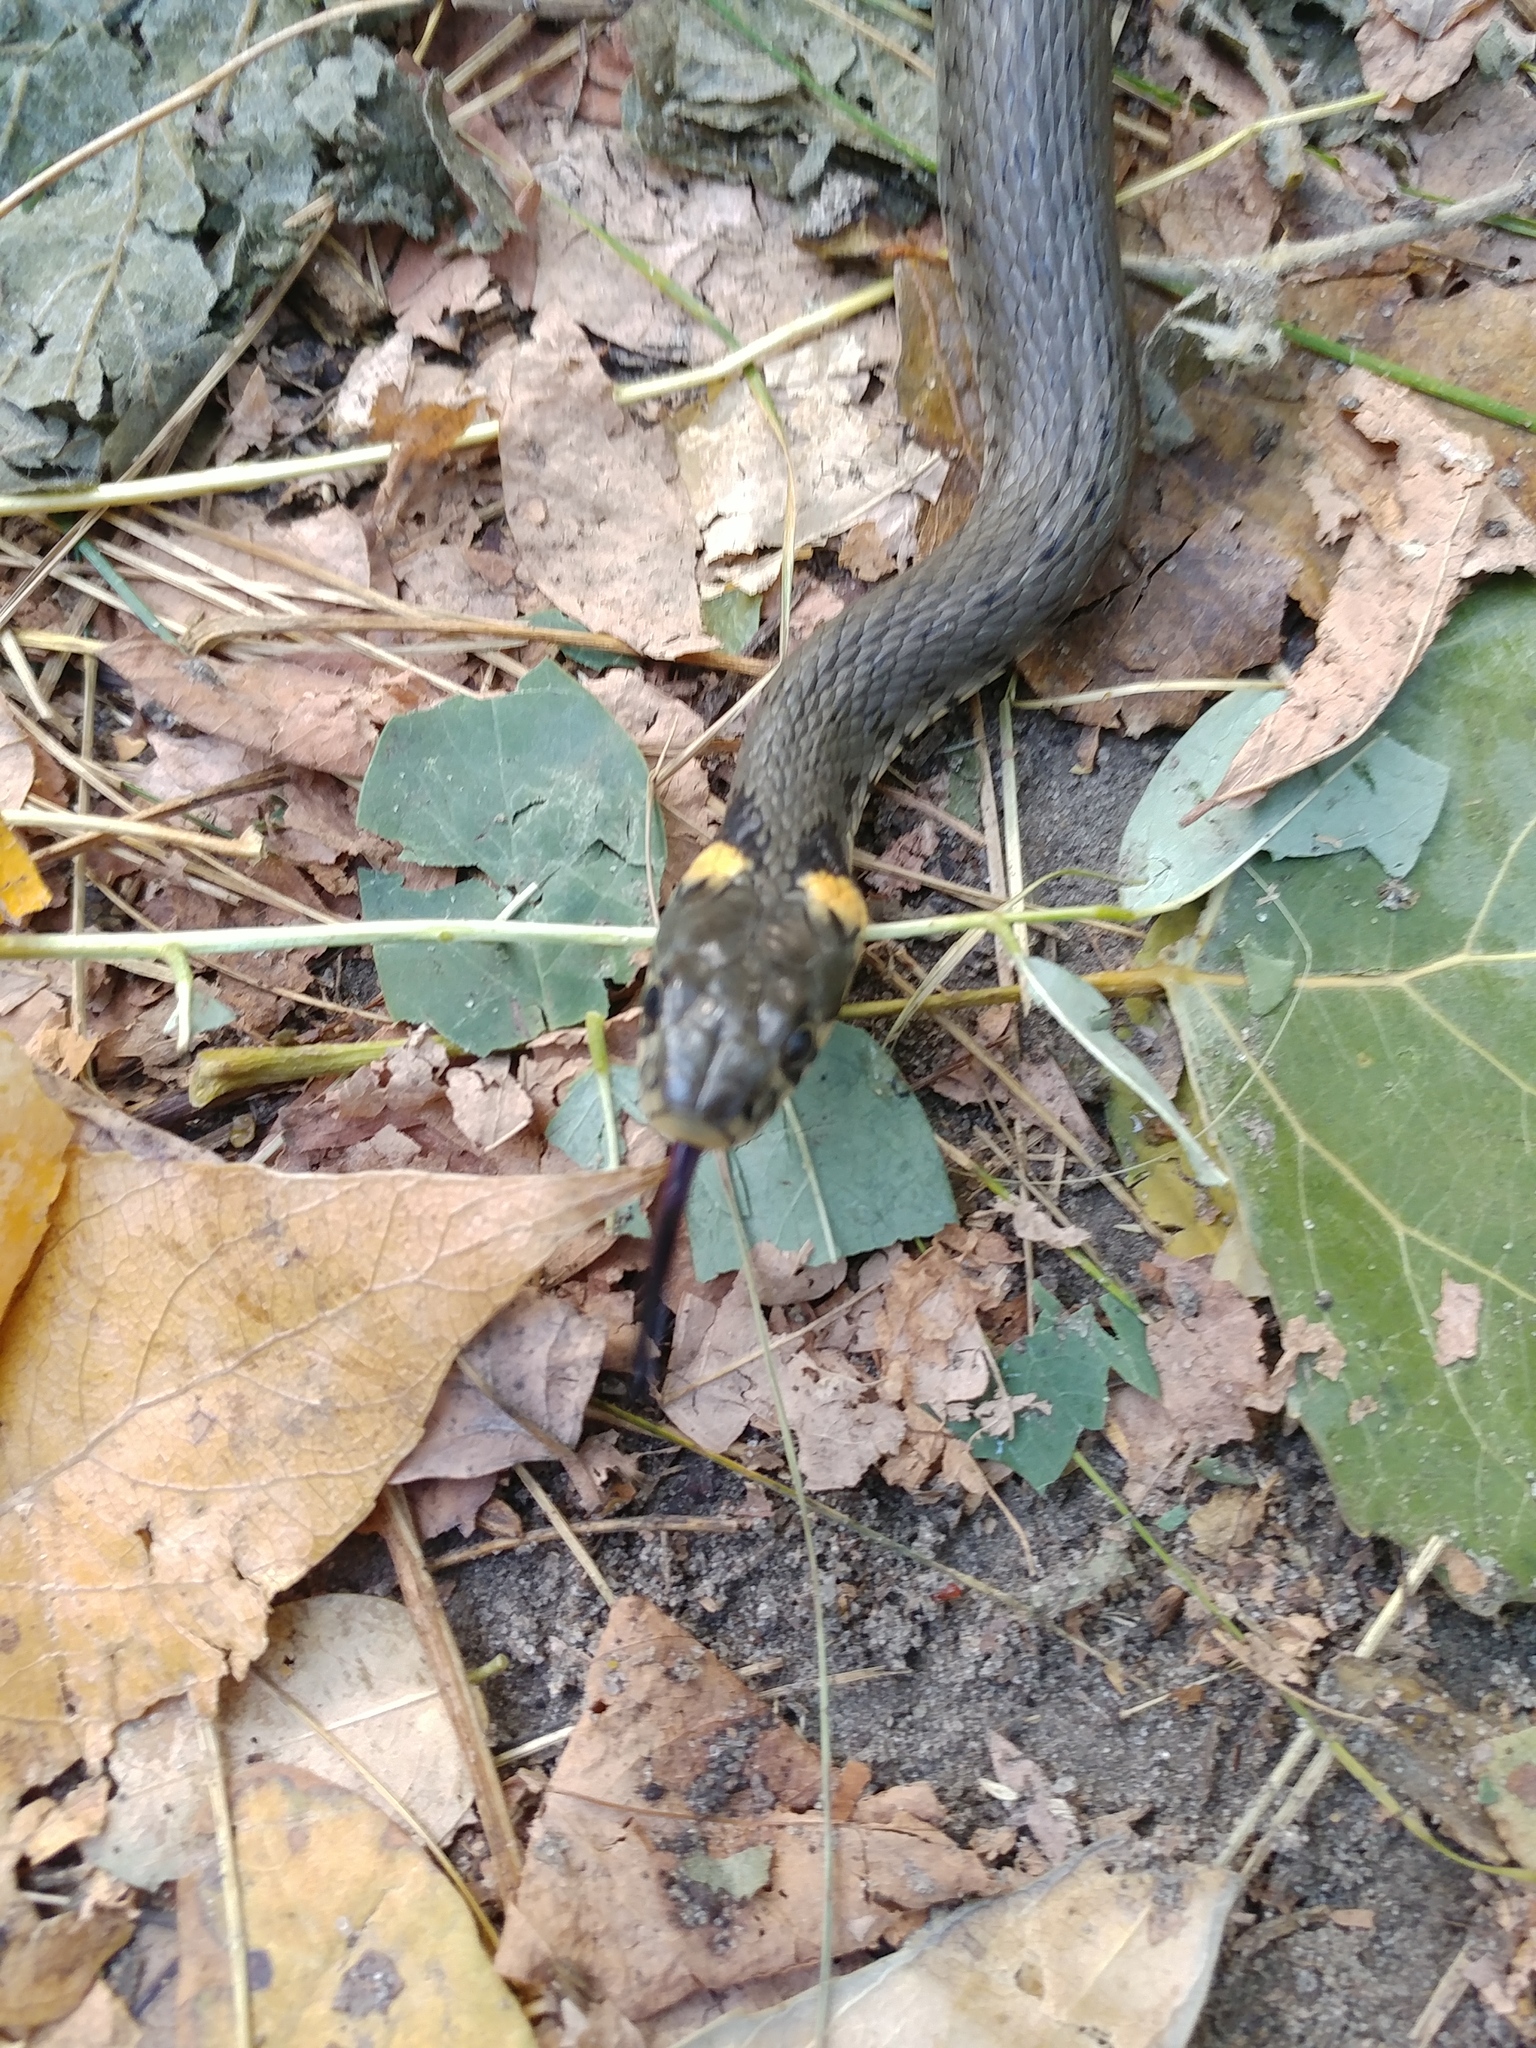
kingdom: Animalia
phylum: Chordata
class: Squamata
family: Colubridae
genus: Natrix
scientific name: Natrix natrix
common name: Grass snake
